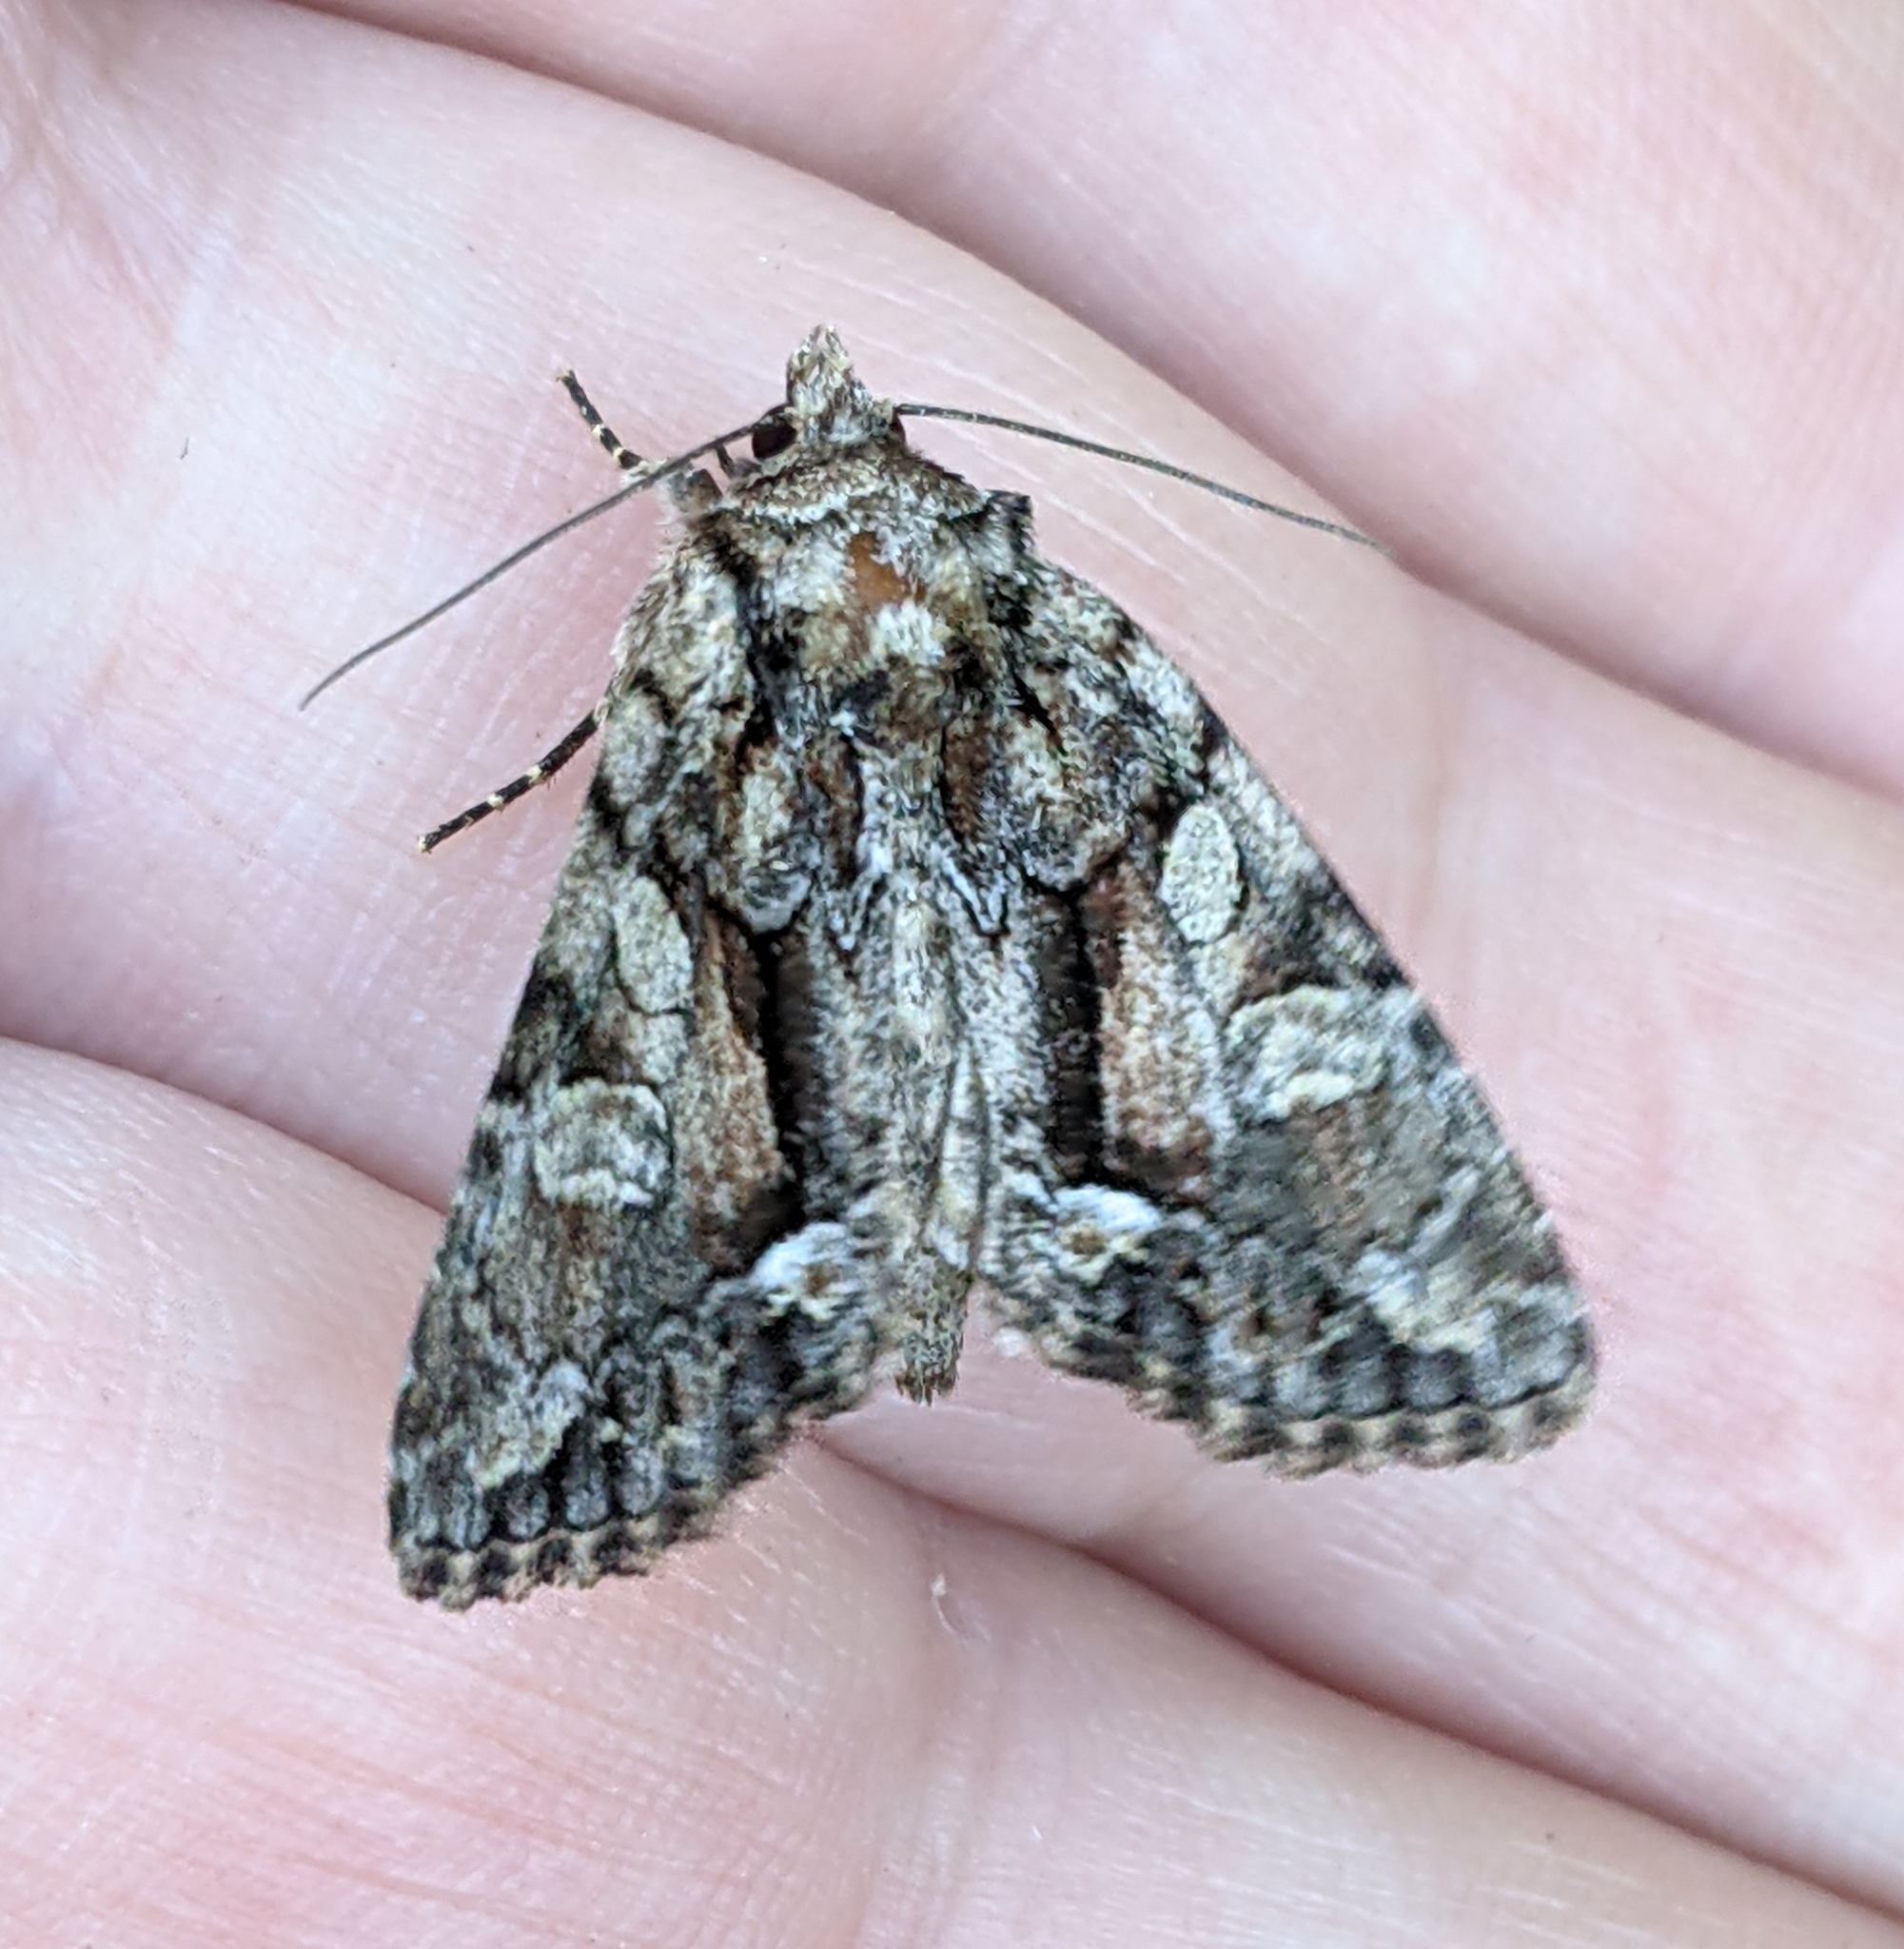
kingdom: Animalia
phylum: Arthropoda
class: Insecta
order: Lepidoptera
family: Noctuidae
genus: Oligia
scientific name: Oligia divesta
